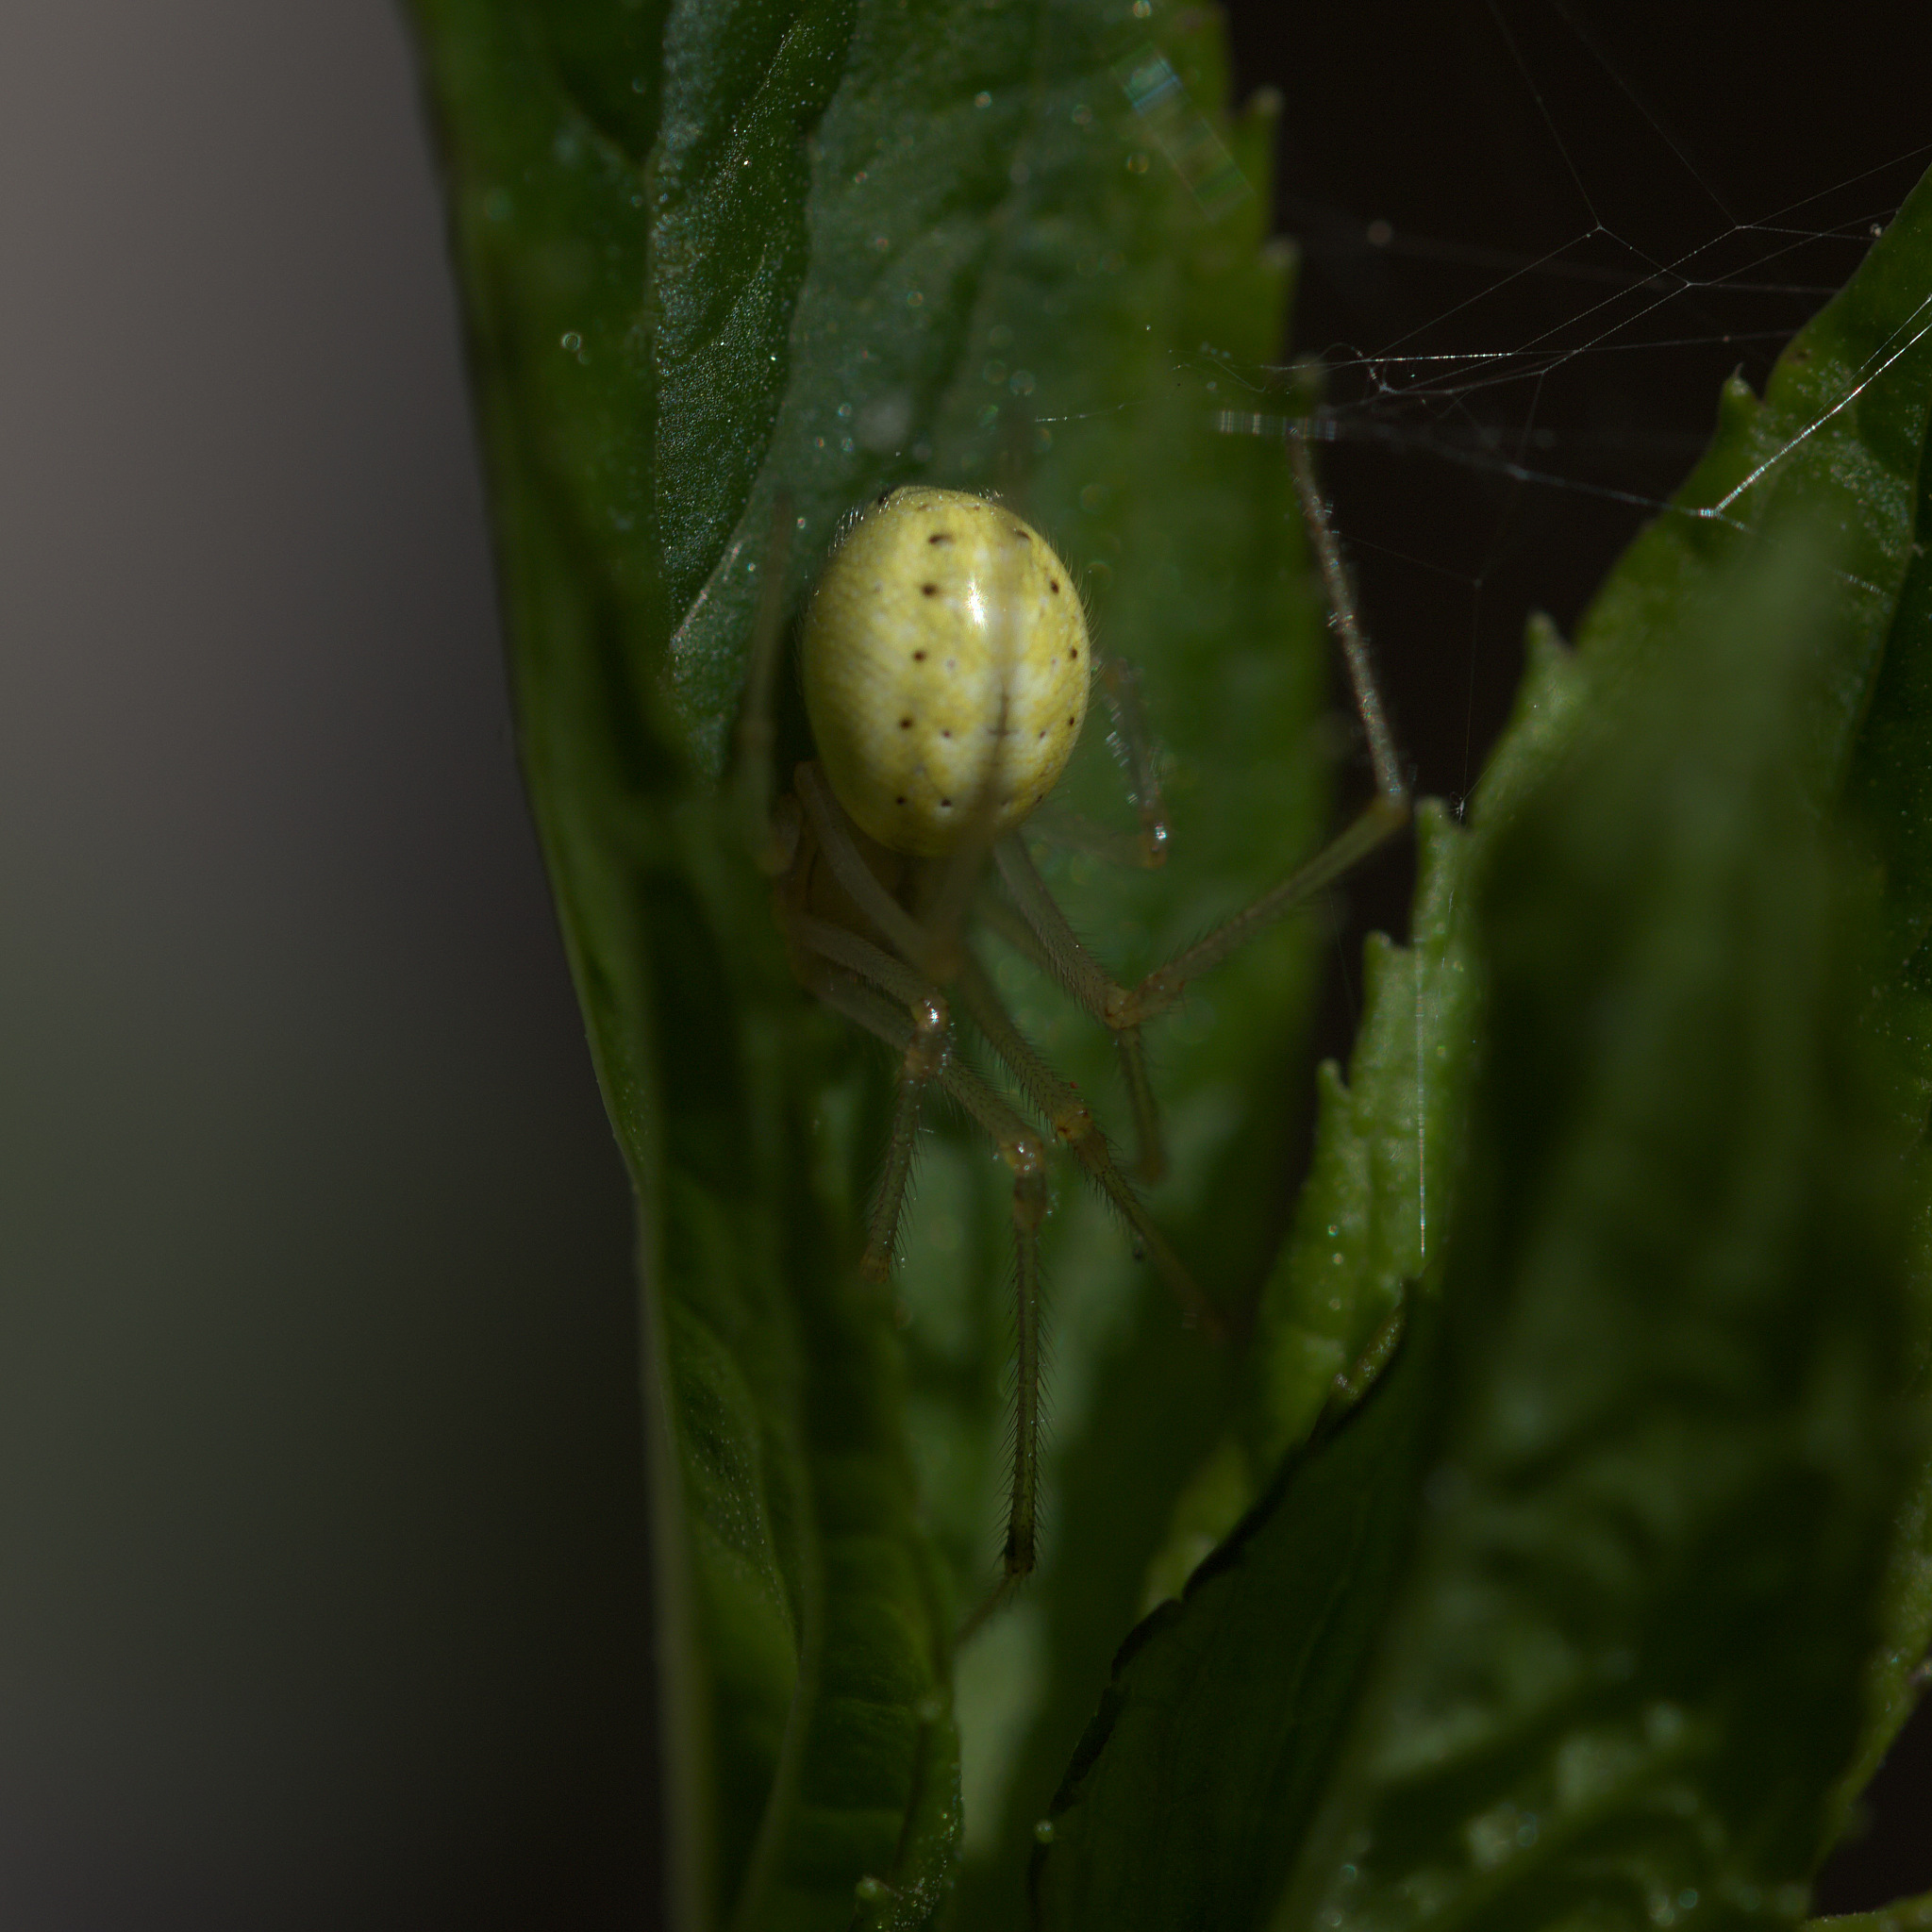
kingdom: Animalia
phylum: Arthropoda
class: Arachnida
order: Araneae
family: Theridiidae
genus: Enoplognatha
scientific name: Enoplognatha ovata
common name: Common candy-striped spider
